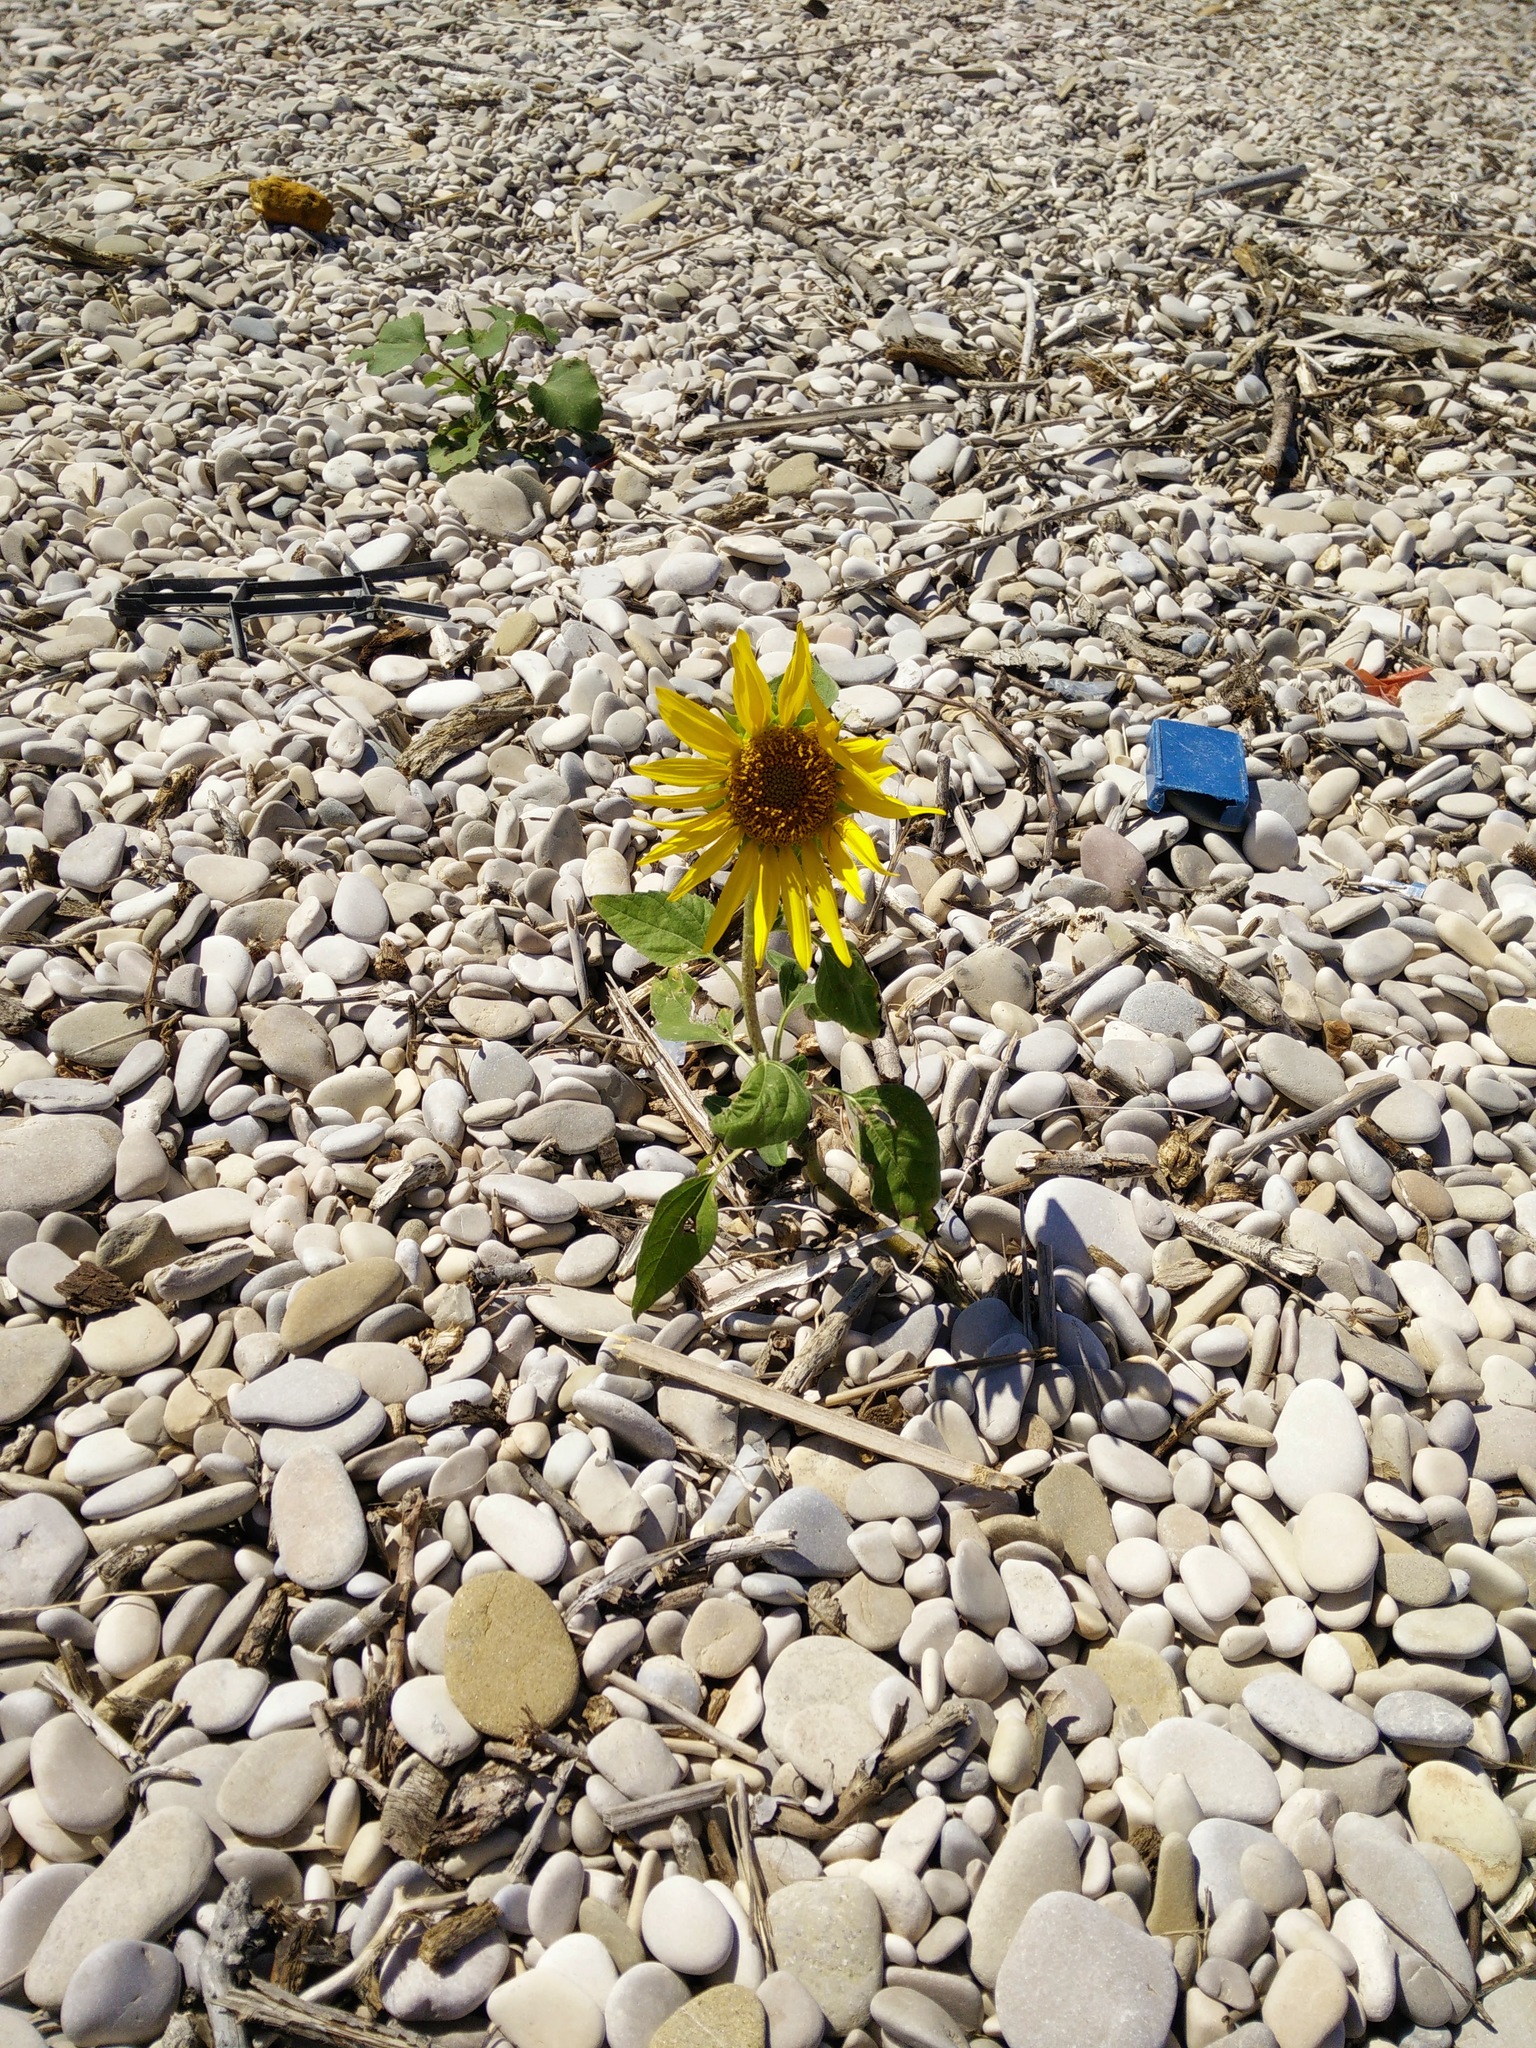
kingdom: Plantae
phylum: Tracheophyta
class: Magnoliopsida
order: Asterales
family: Asteraceae
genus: Helianthus
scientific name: Helianthus annuus
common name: Sunflower
